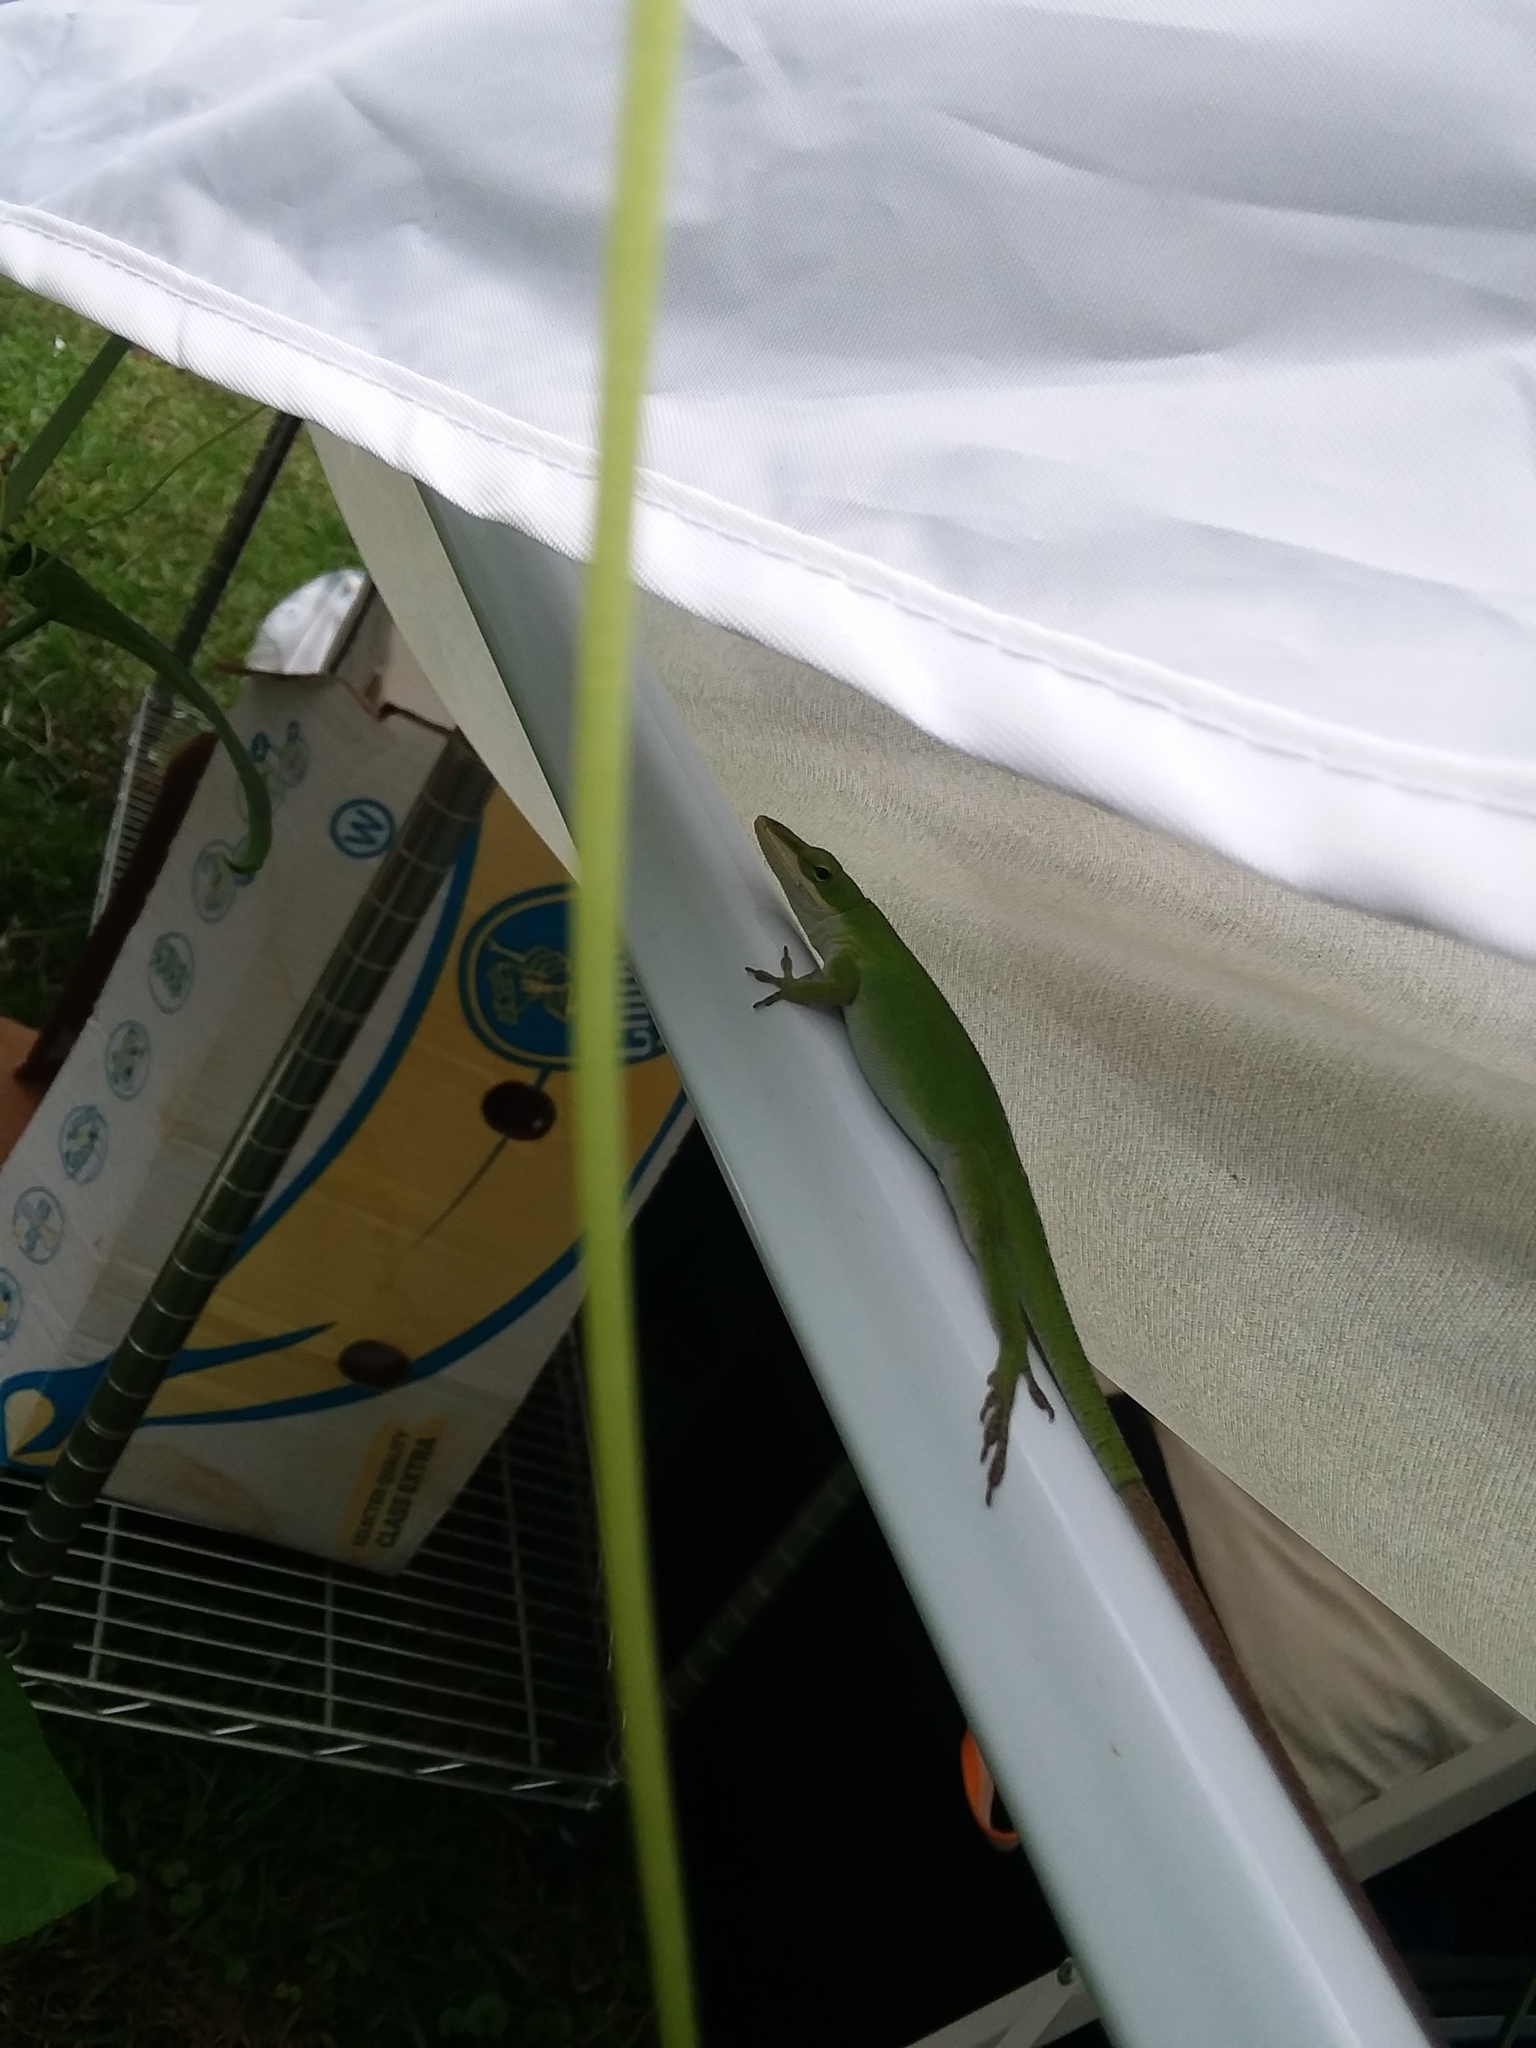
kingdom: Animalia
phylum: Chordata
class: Squamata
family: Dactyloidae
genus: Anolis
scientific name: Anolis carolinensis
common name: Green anole
